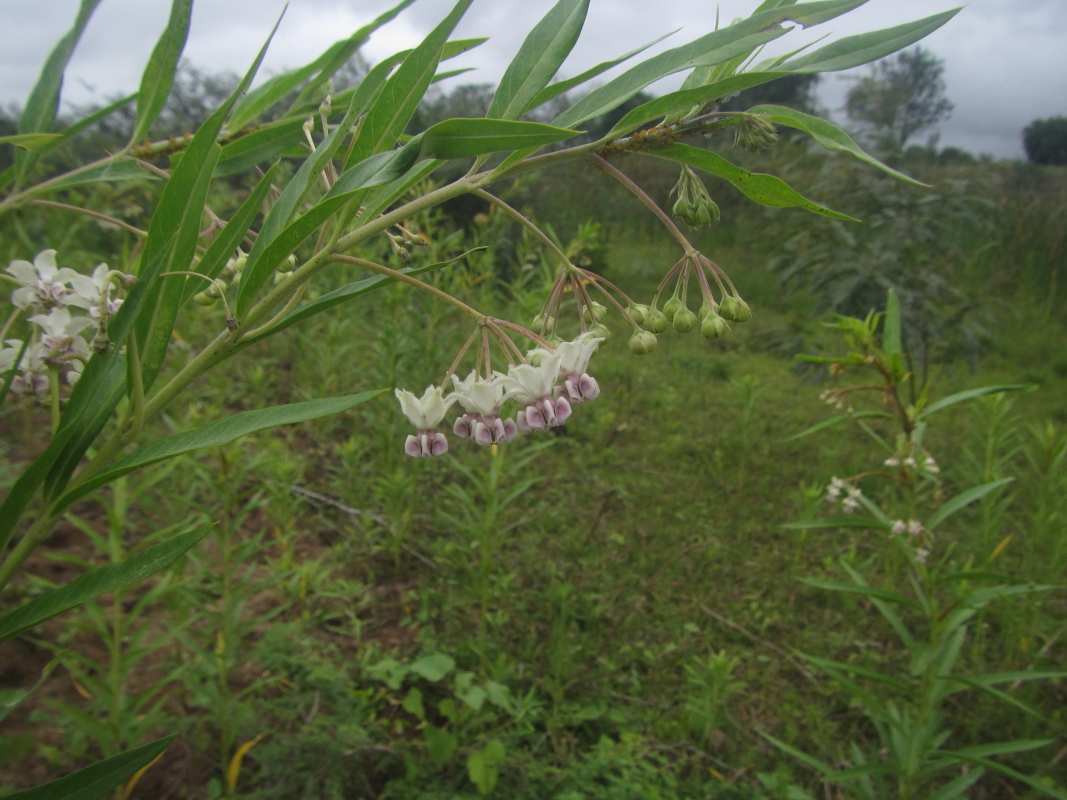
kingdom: Plantae
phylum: Tracheophyta
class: Magnoliopsida
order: Gentianales
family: Apocynaceae
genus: Gomphocarpus
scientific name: Gomphocarpus physocarpus
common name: Balloon cotton bush
